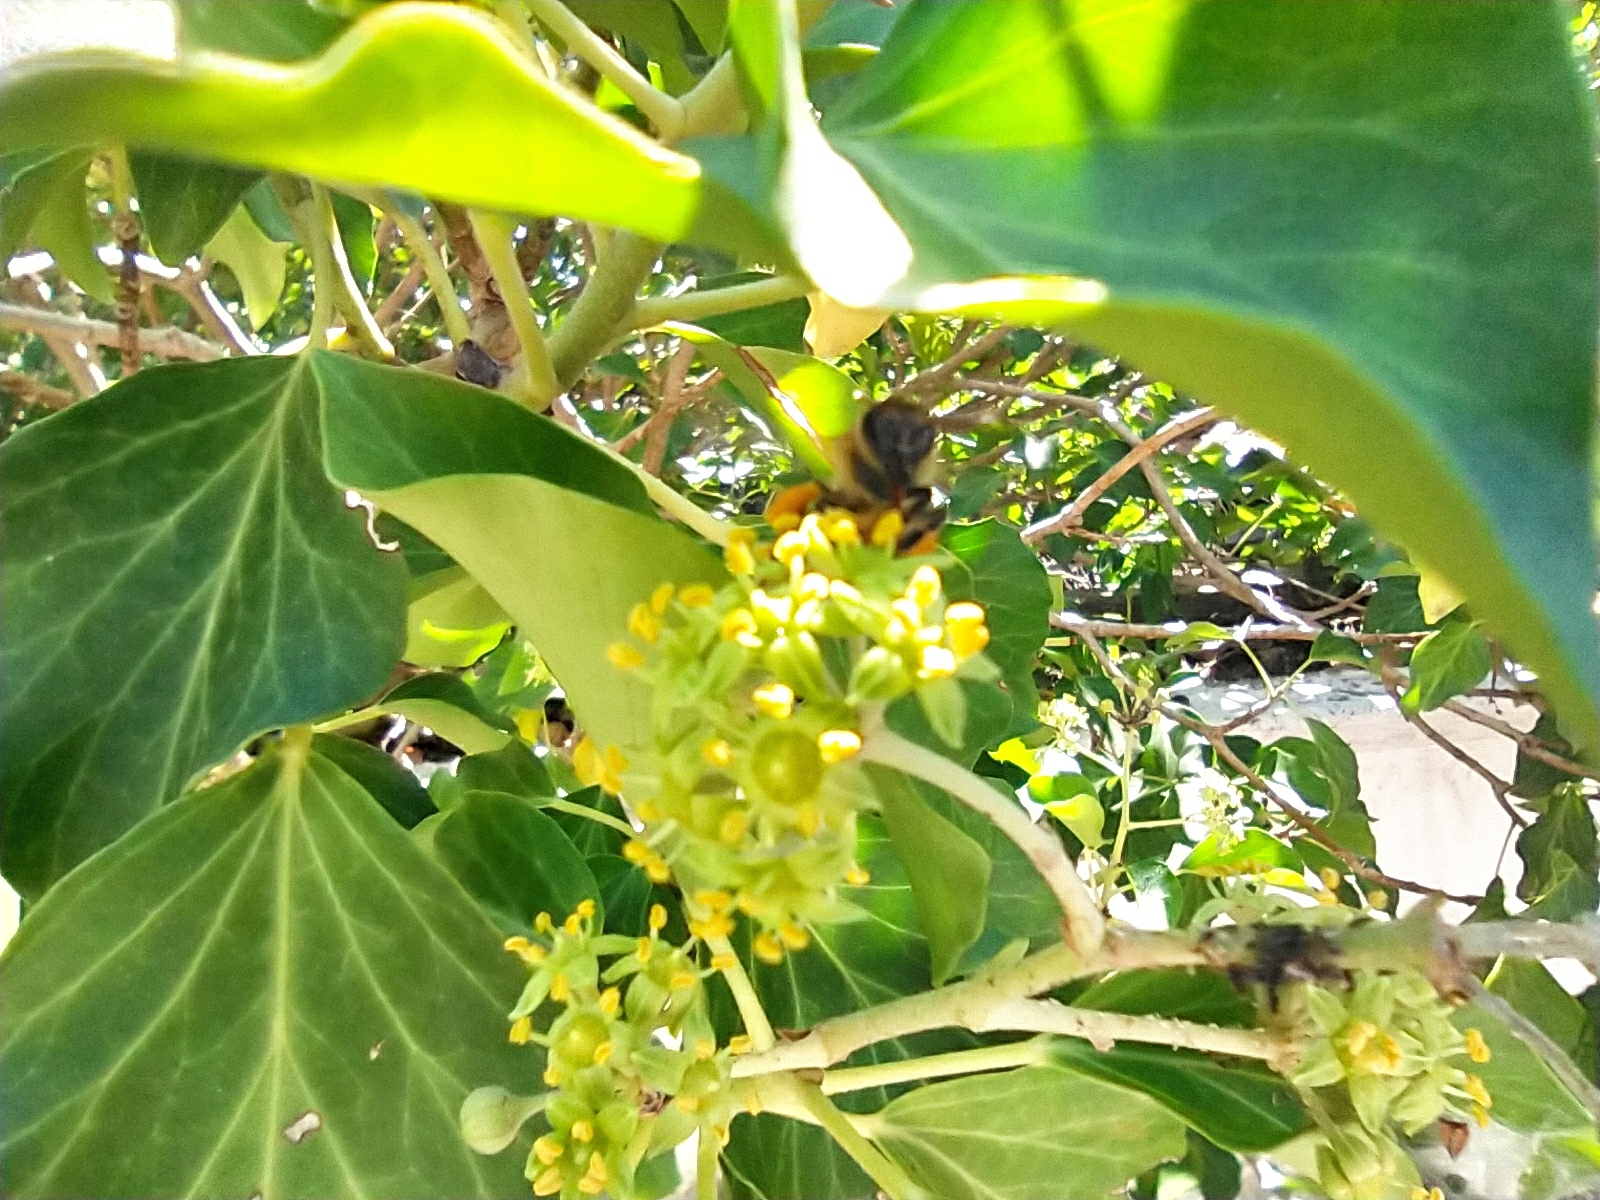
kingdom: Animalia
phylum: Arthropoda
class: Insecta
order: Hymenoptera
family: Apidae
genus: Apis
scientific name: Apis mellifera
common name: Honey bee
